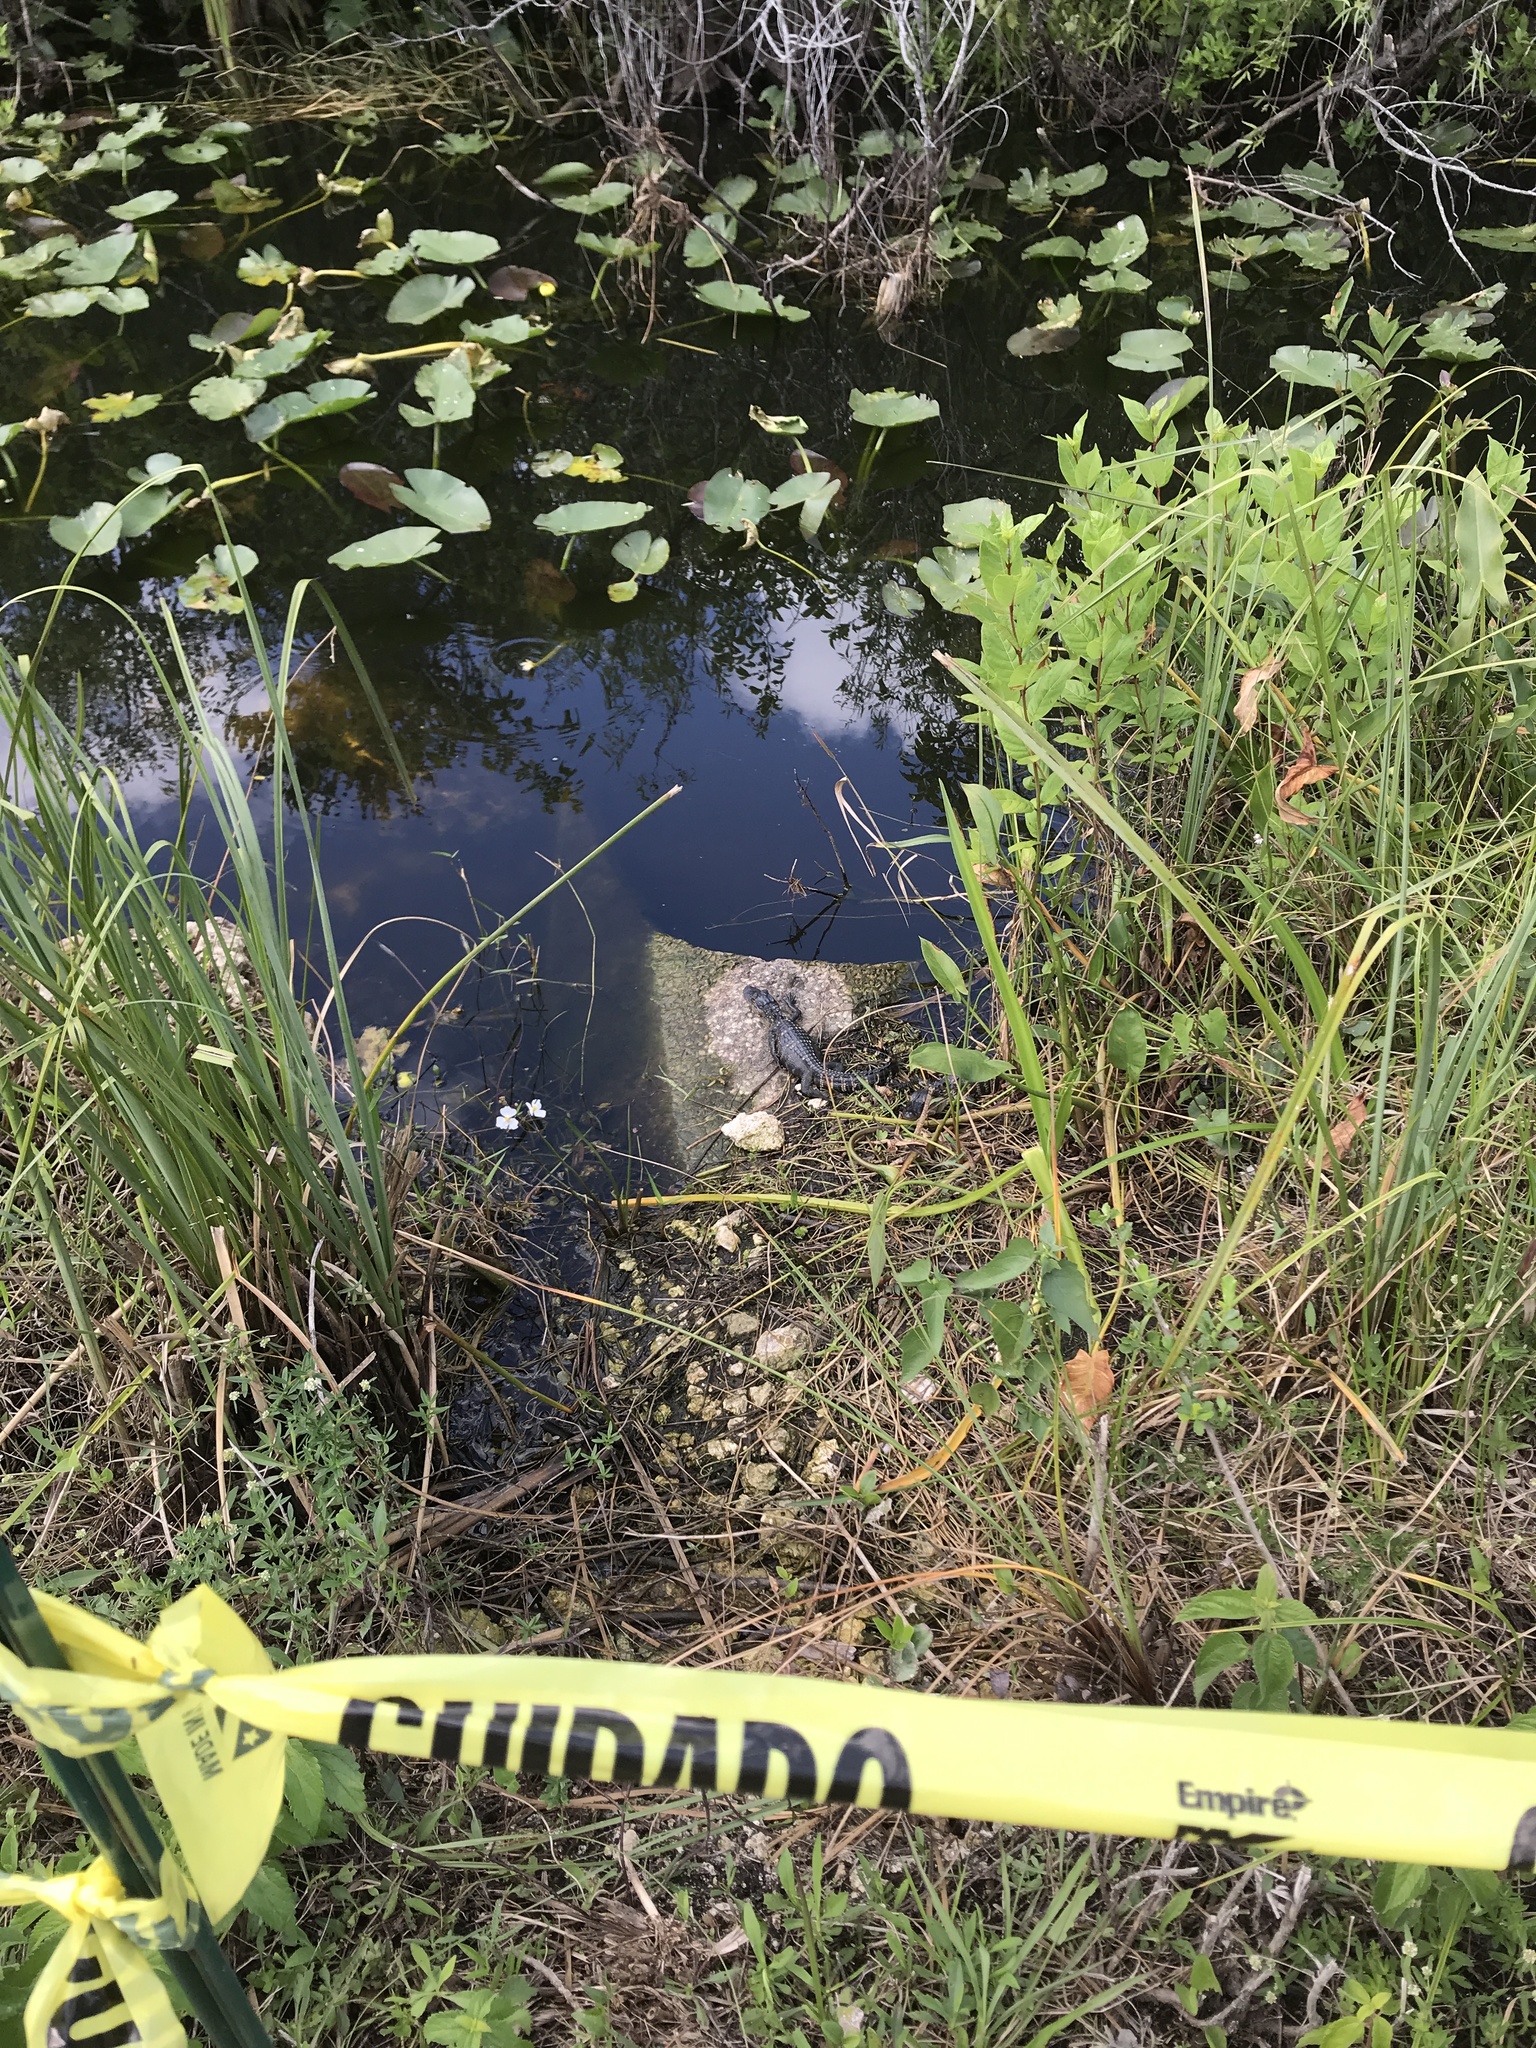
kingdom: Animalia
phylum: Chordata
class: Crocodylia
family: Alligatoridae
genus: Alligator
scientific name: Alligator mississippiensis
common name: American alligator
